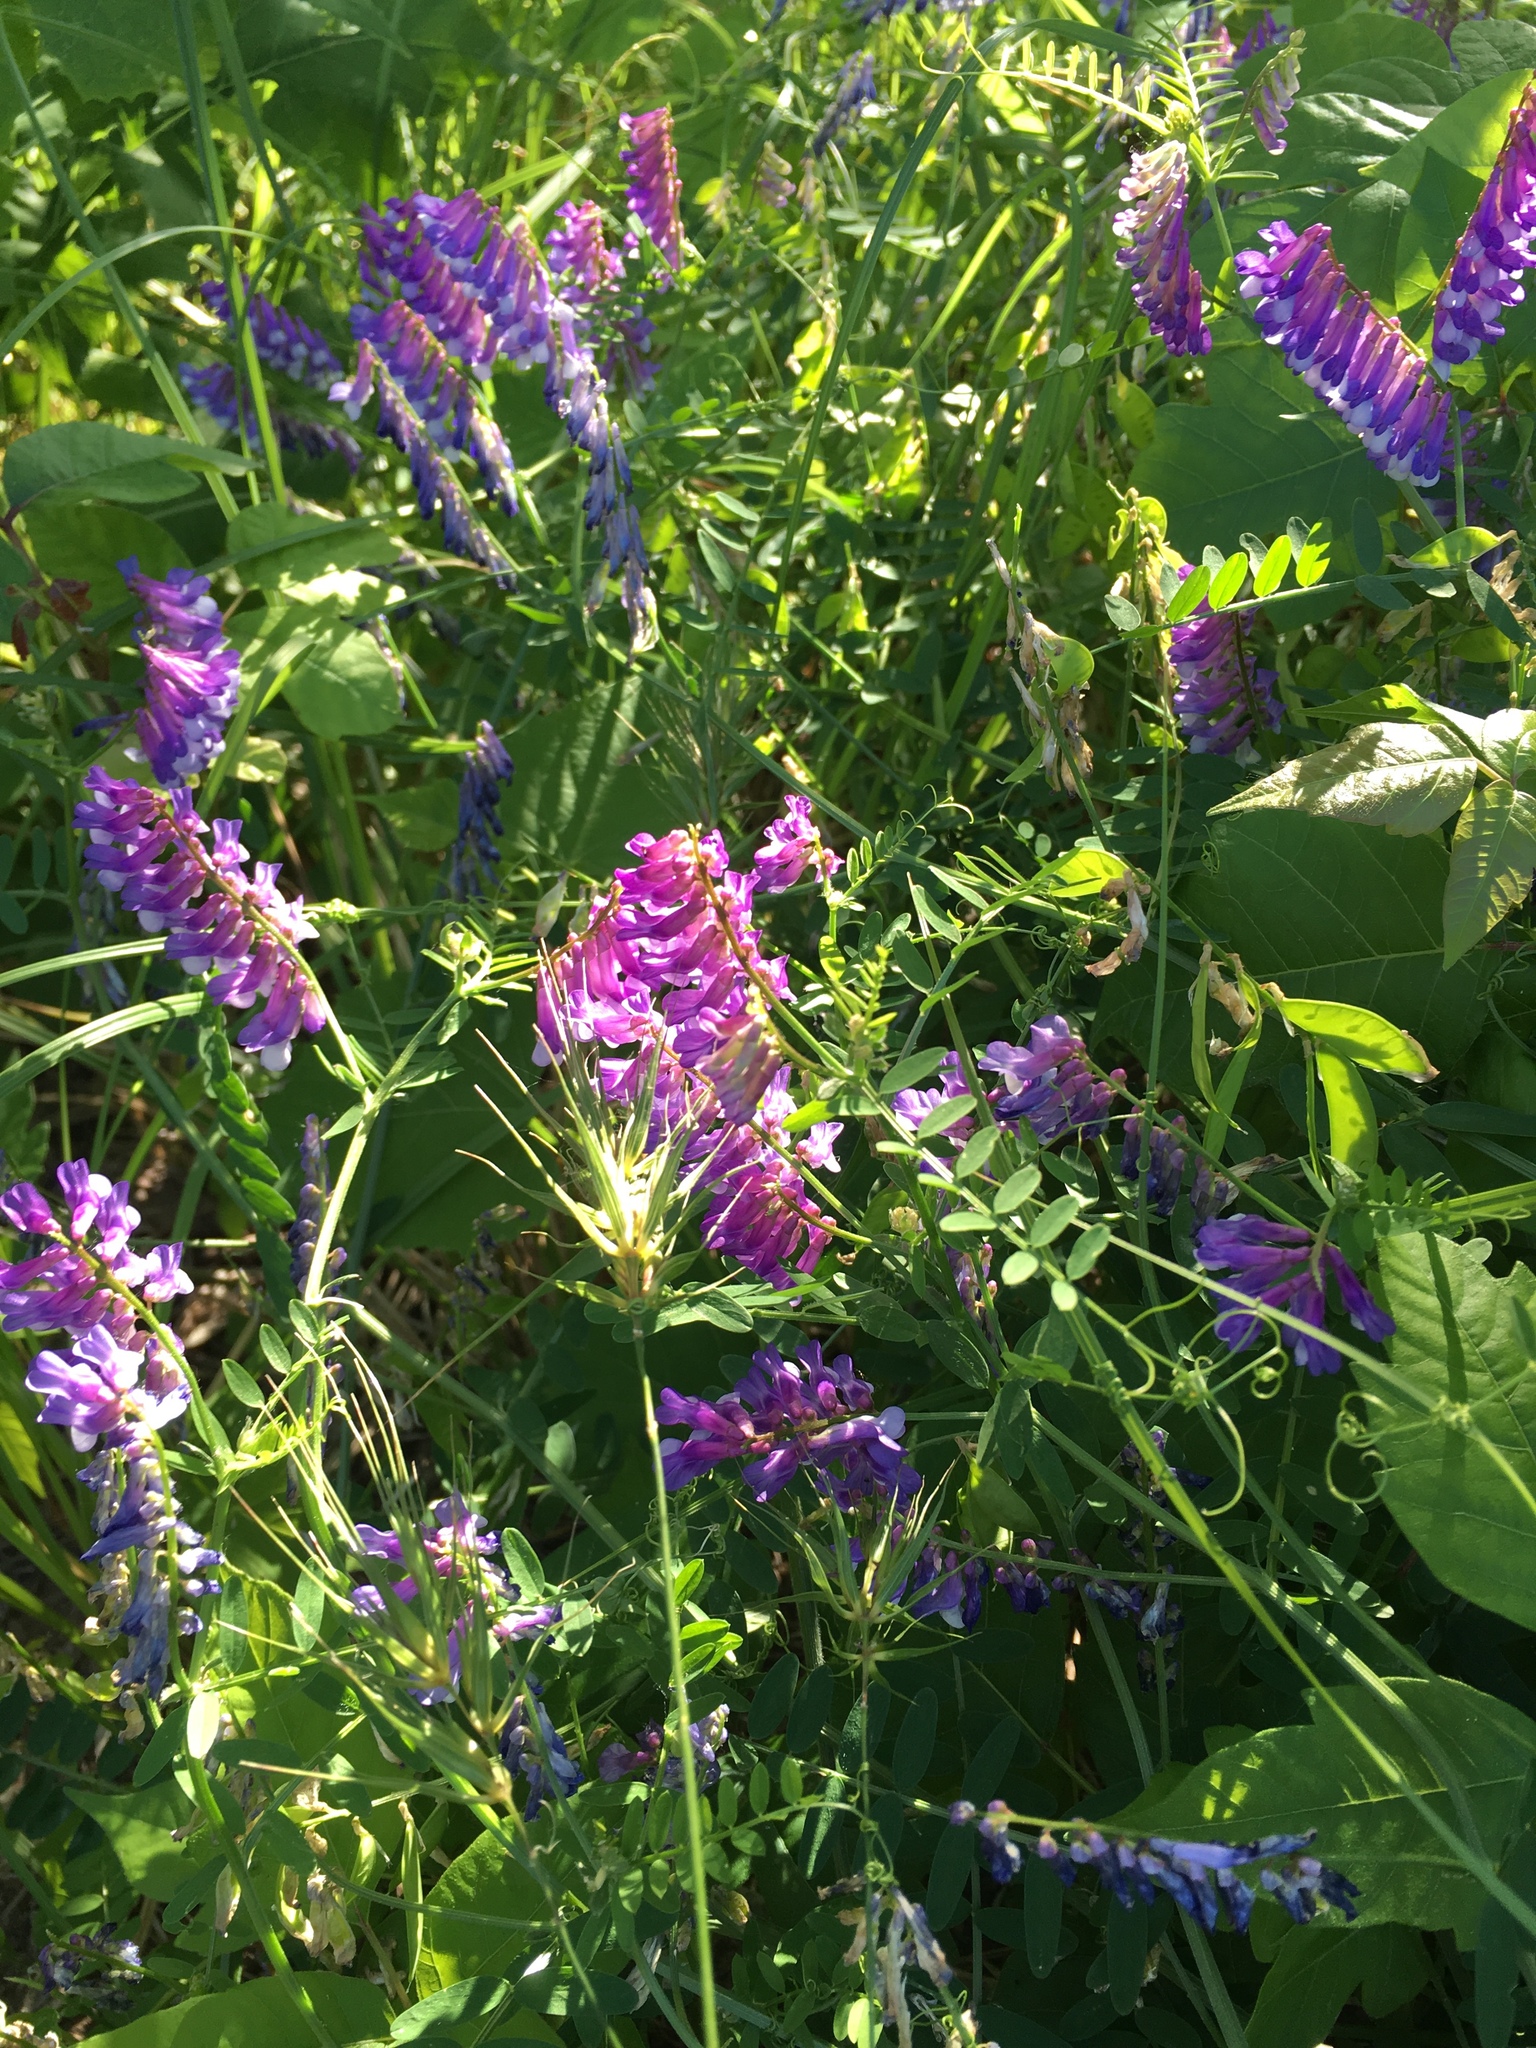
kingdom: Plantae
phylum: Tracheophyta
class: Magnoliopsida
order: Fabales
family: Fabaceae
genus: Vicia
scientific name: Vicia villosa
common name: Fodder vetch
